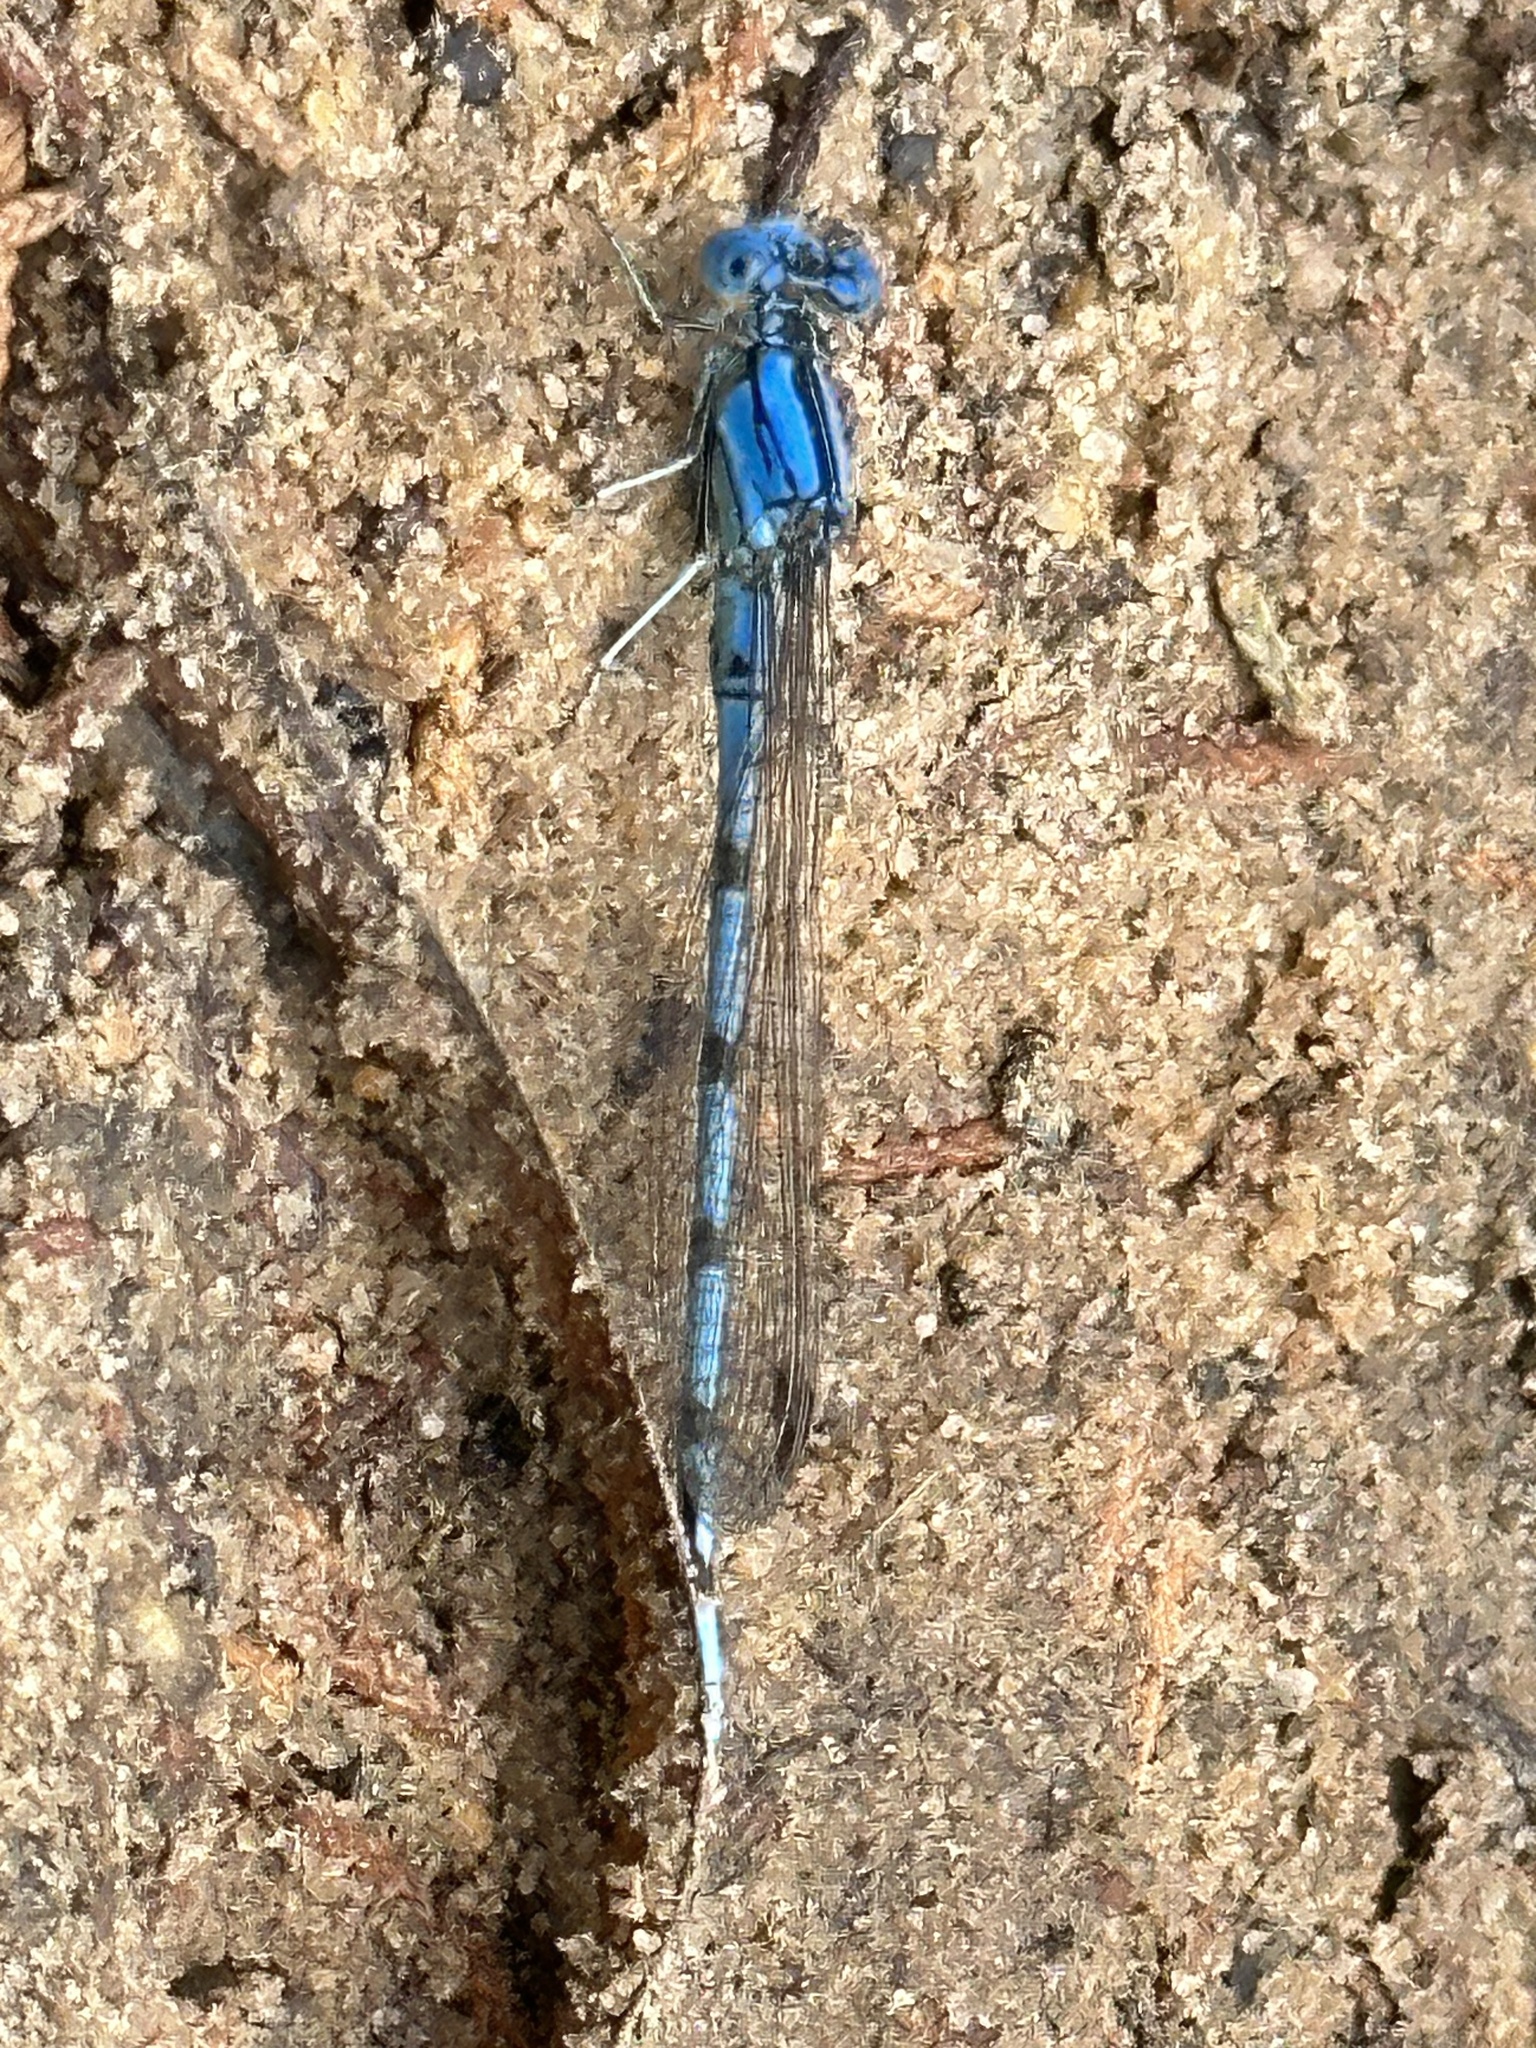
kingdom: Animalia
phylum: Arthropoda
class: Insecta
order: Odonata
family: Coenagrionidae
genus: Argia
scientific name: Argia nahuana
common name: Aztec dancer
